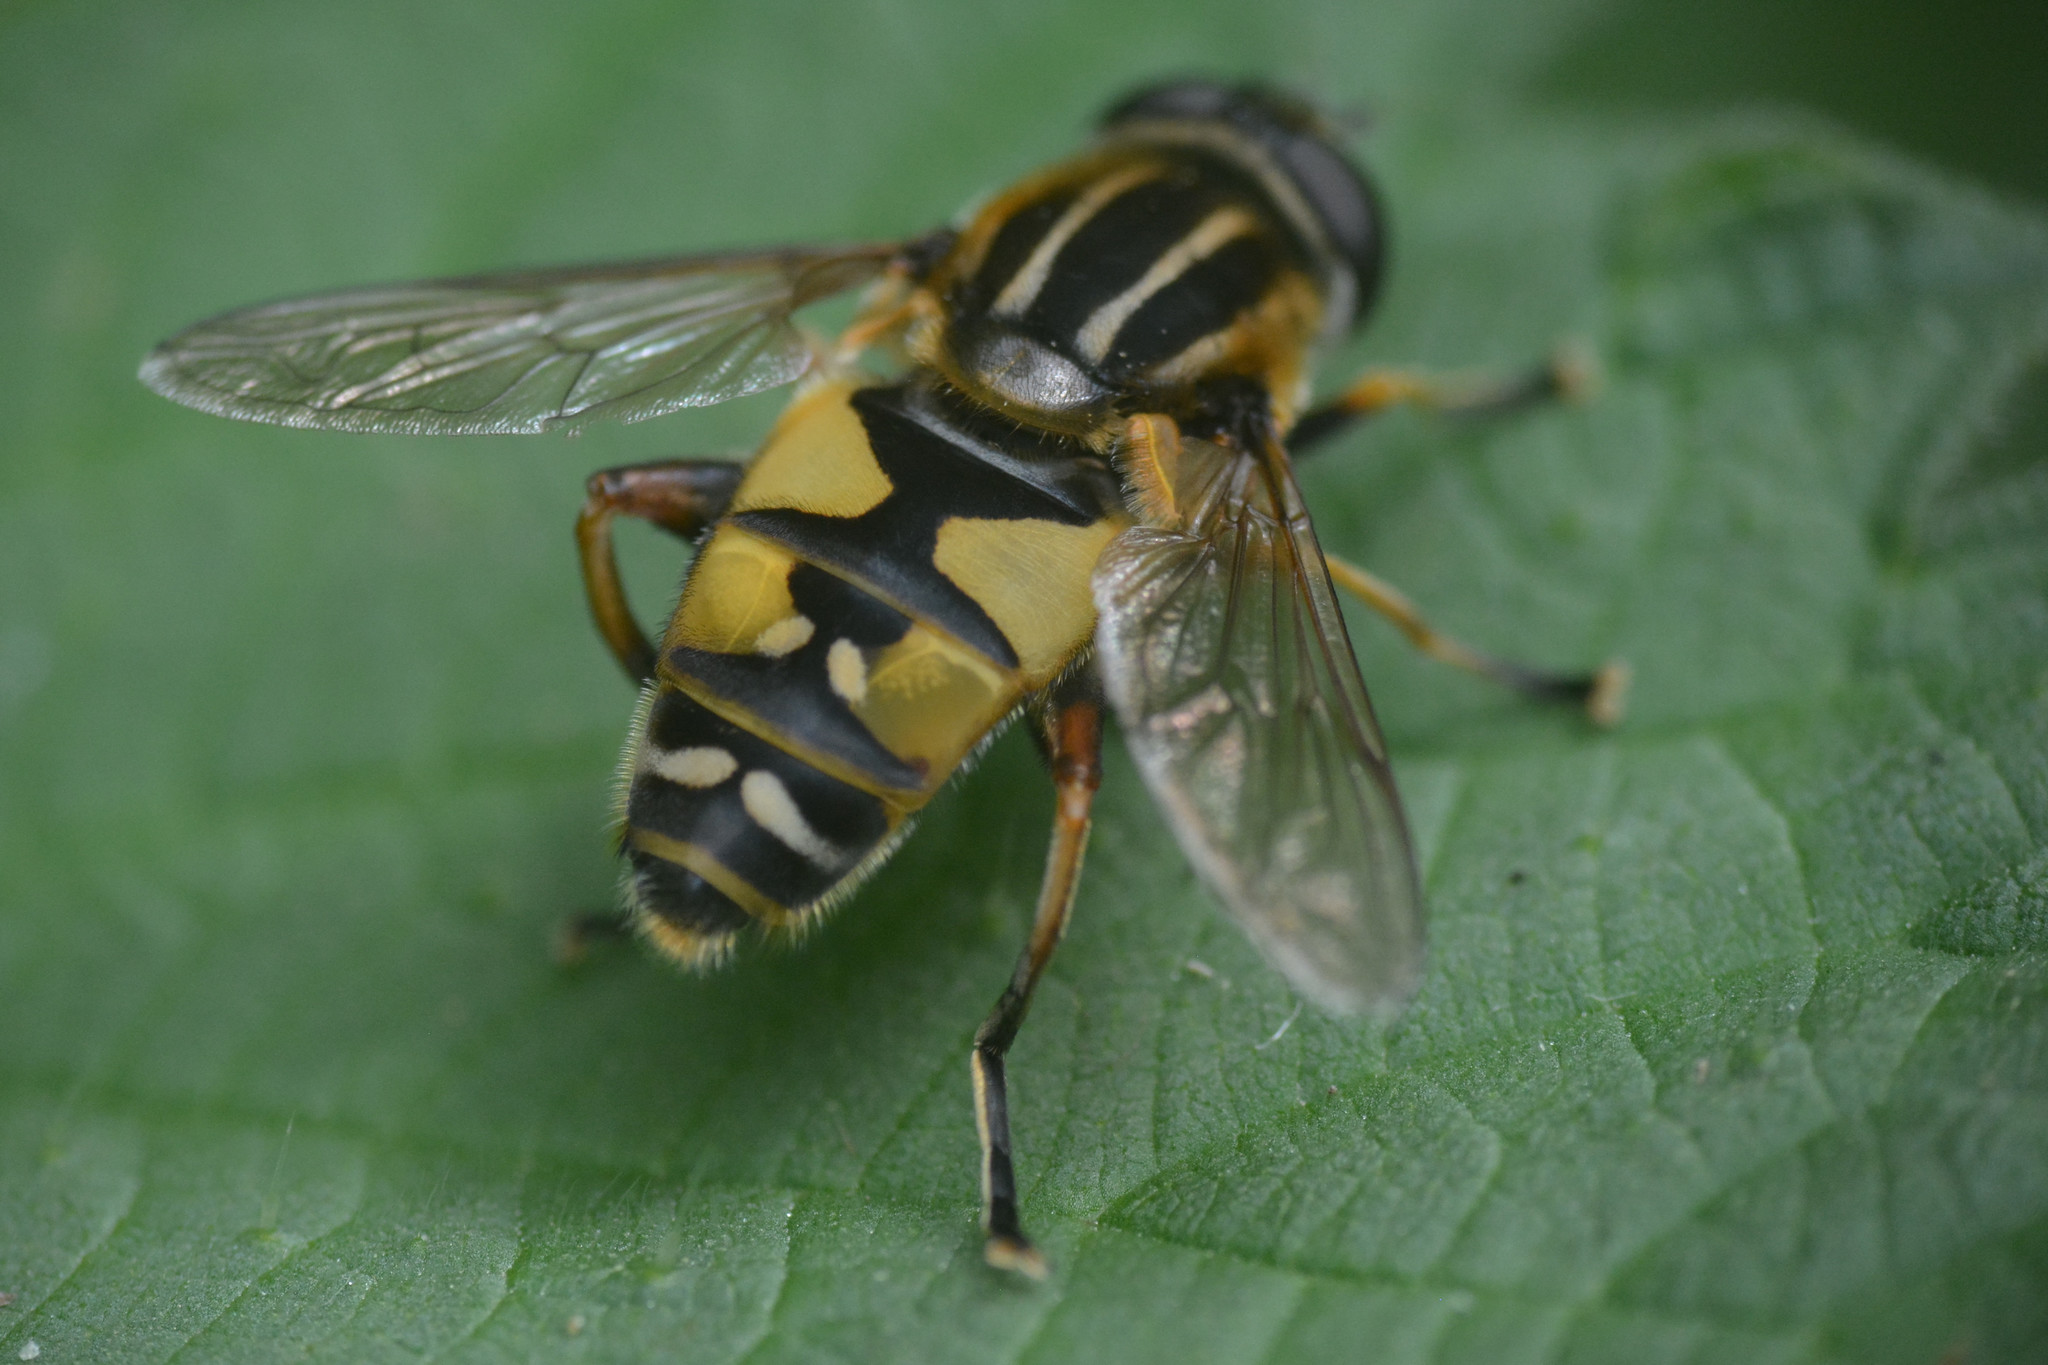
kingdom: Animalia
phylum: Arthropoda
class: Insecta
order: Diptera
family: Syrphidae
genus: Helophilus
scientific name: Helophilus pendulus
